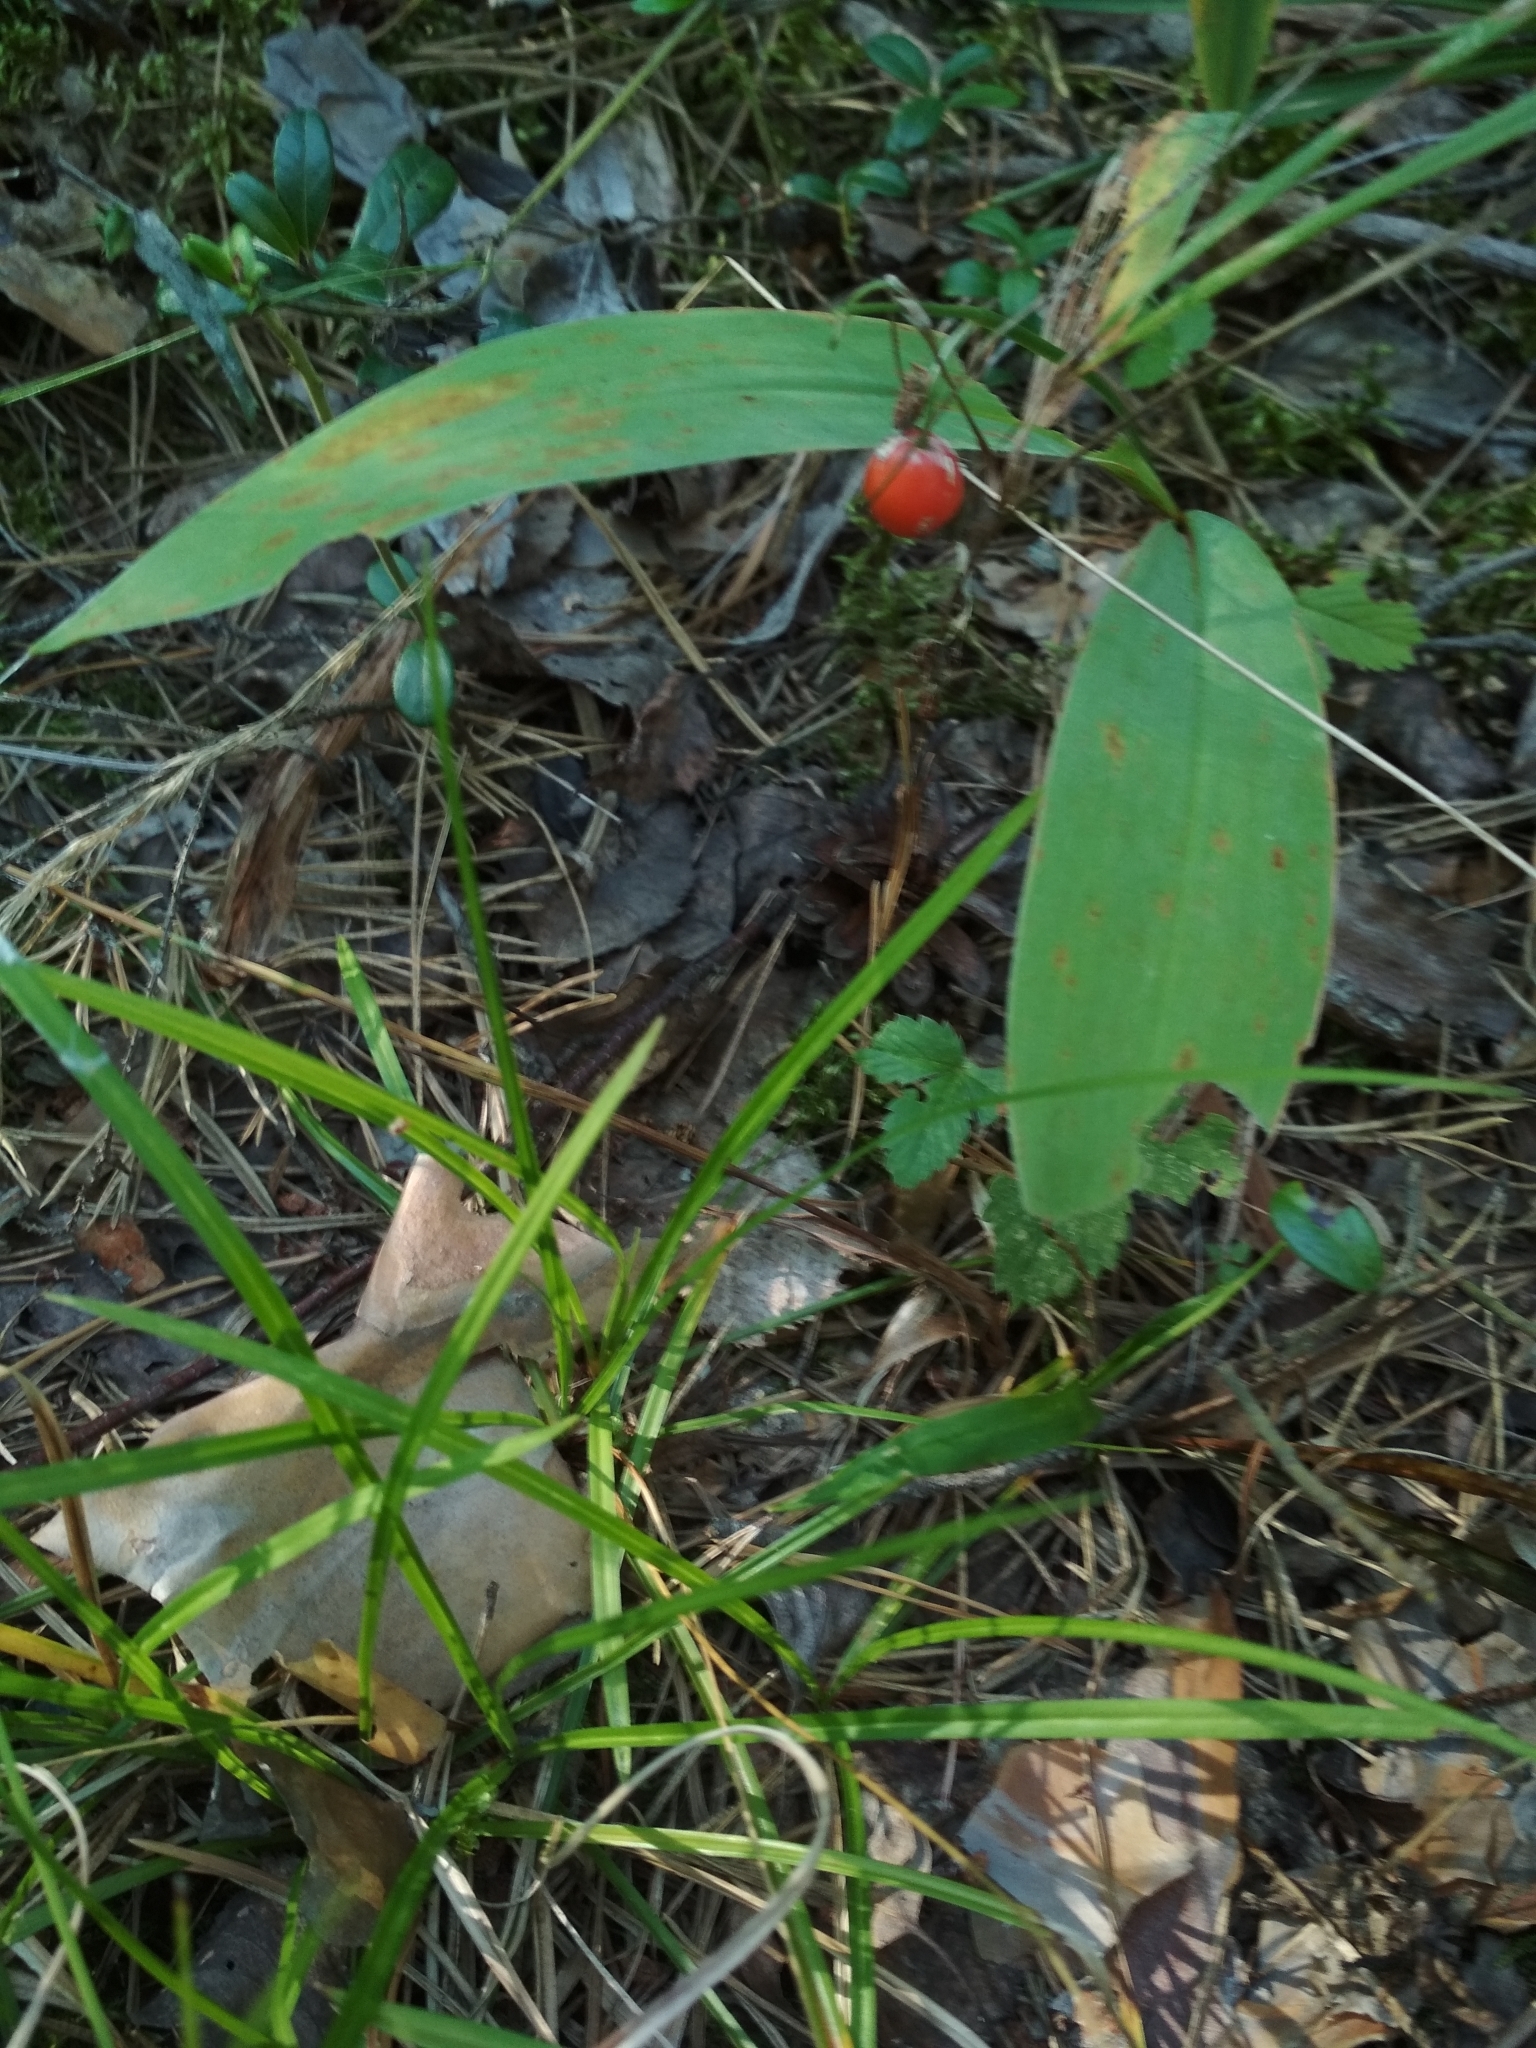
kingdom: Plantae
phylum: Tracheophyta
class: Liliopsida
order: Asparagales
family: Asparagaceae
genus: Convallaria
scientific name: Convallaria majalis
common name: Lily-of-the-valley
